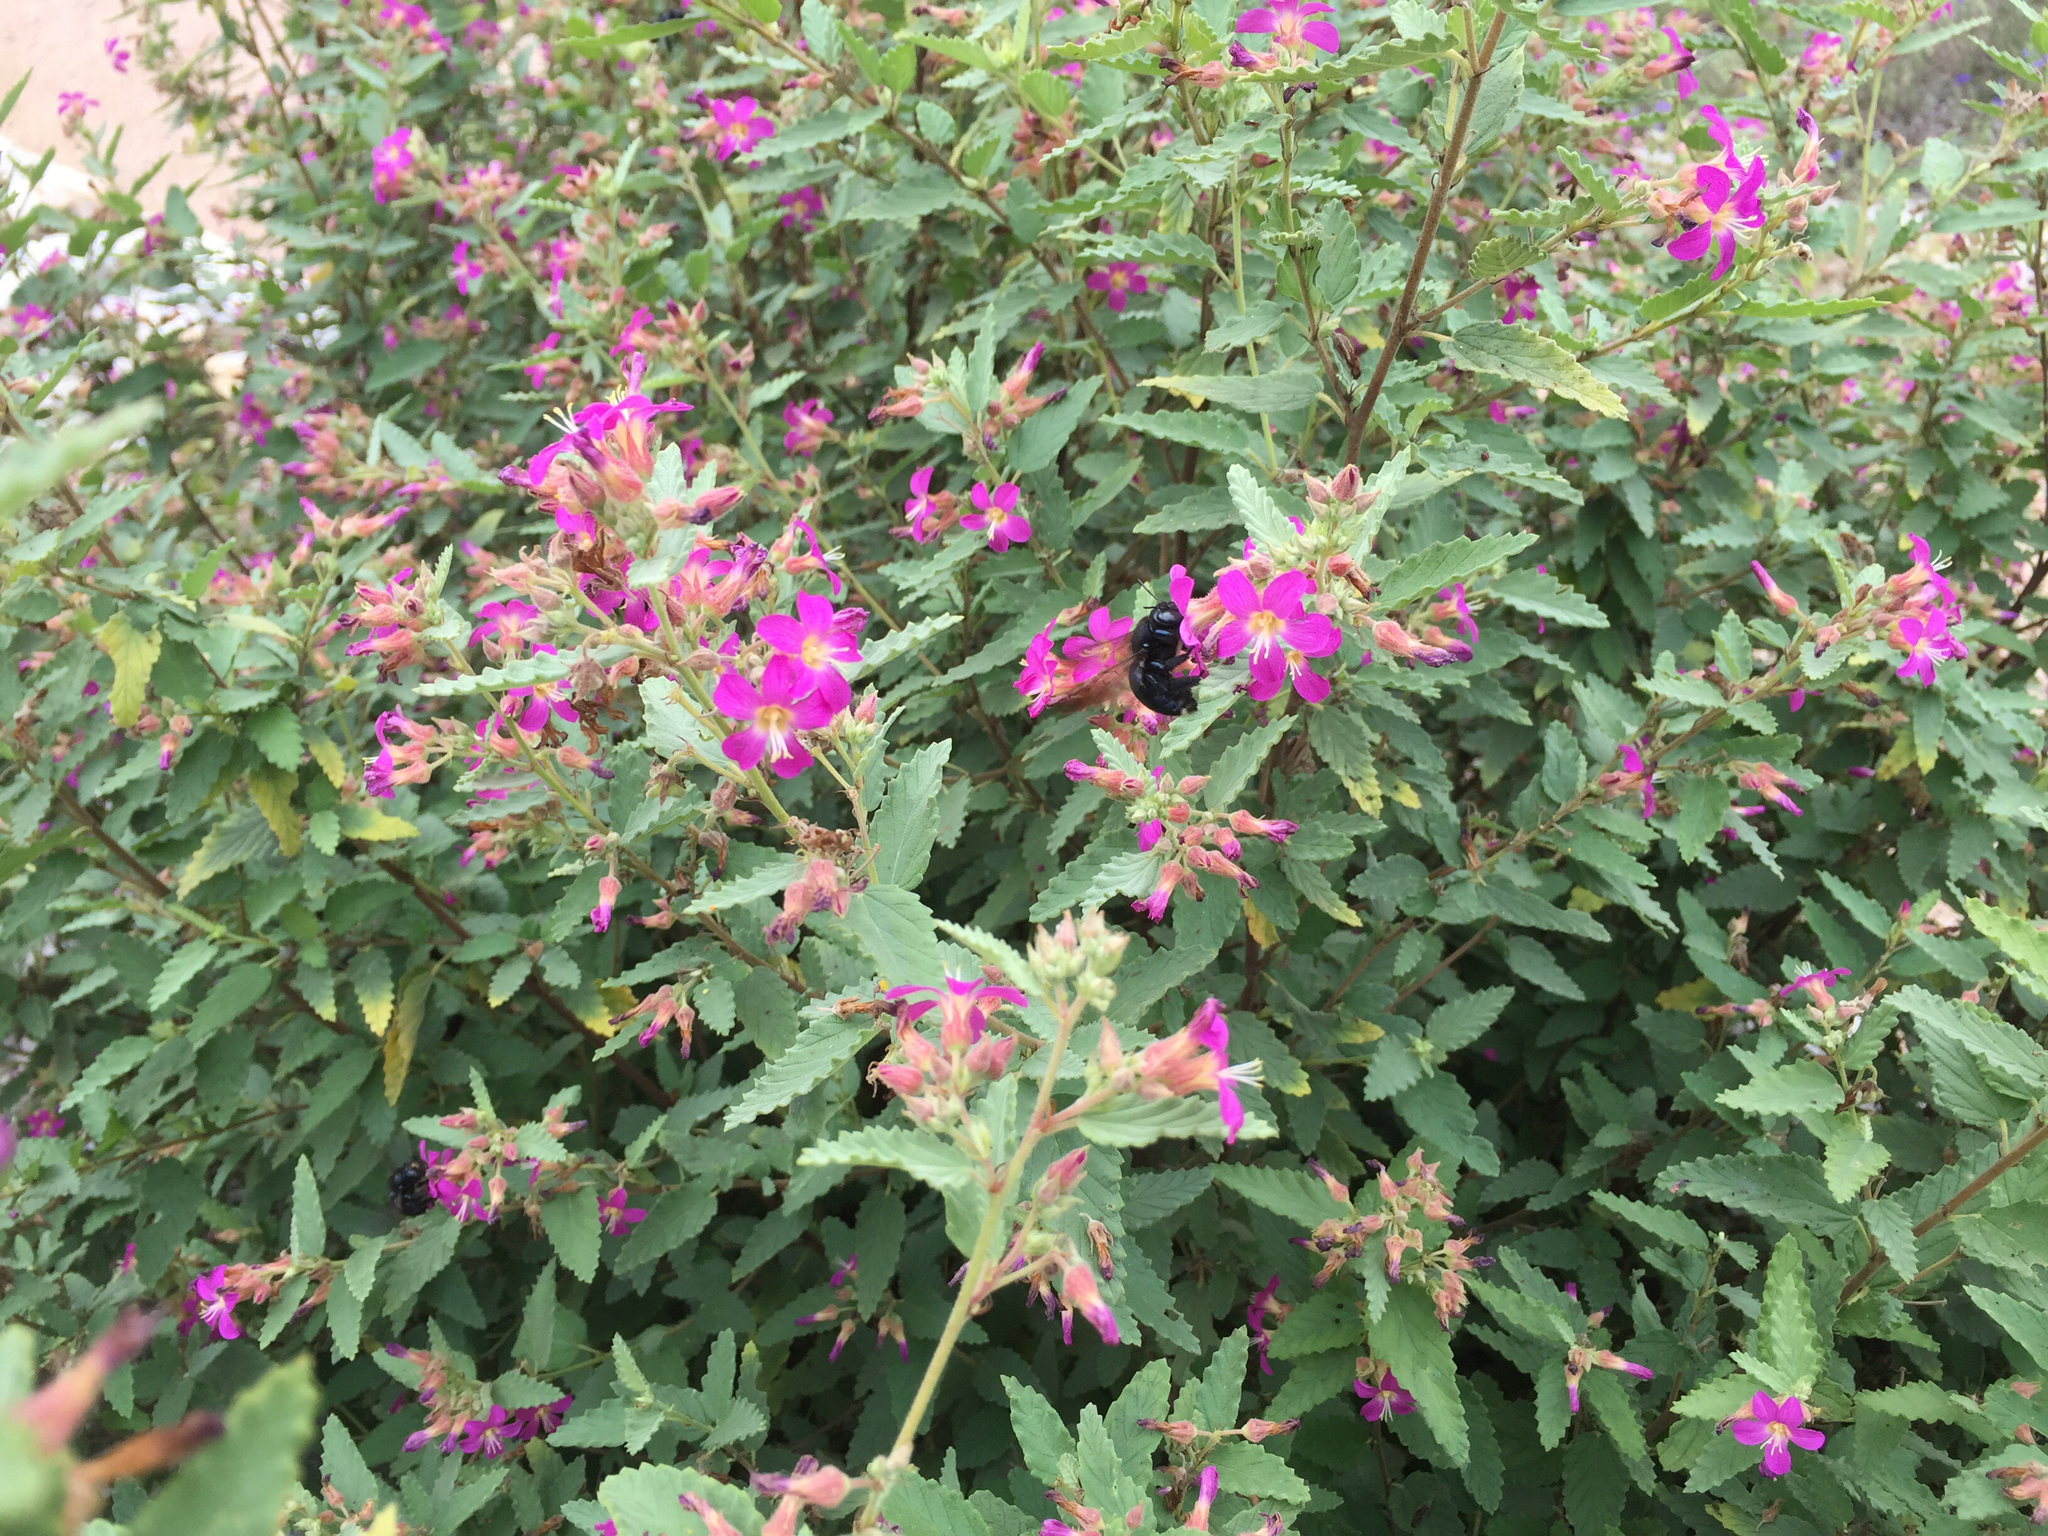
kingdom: Animalia
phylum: Arthropoda
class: Insecta
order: Hymenoptera
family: Apidae
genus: Xylocopa
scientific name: Xylocopa micans
